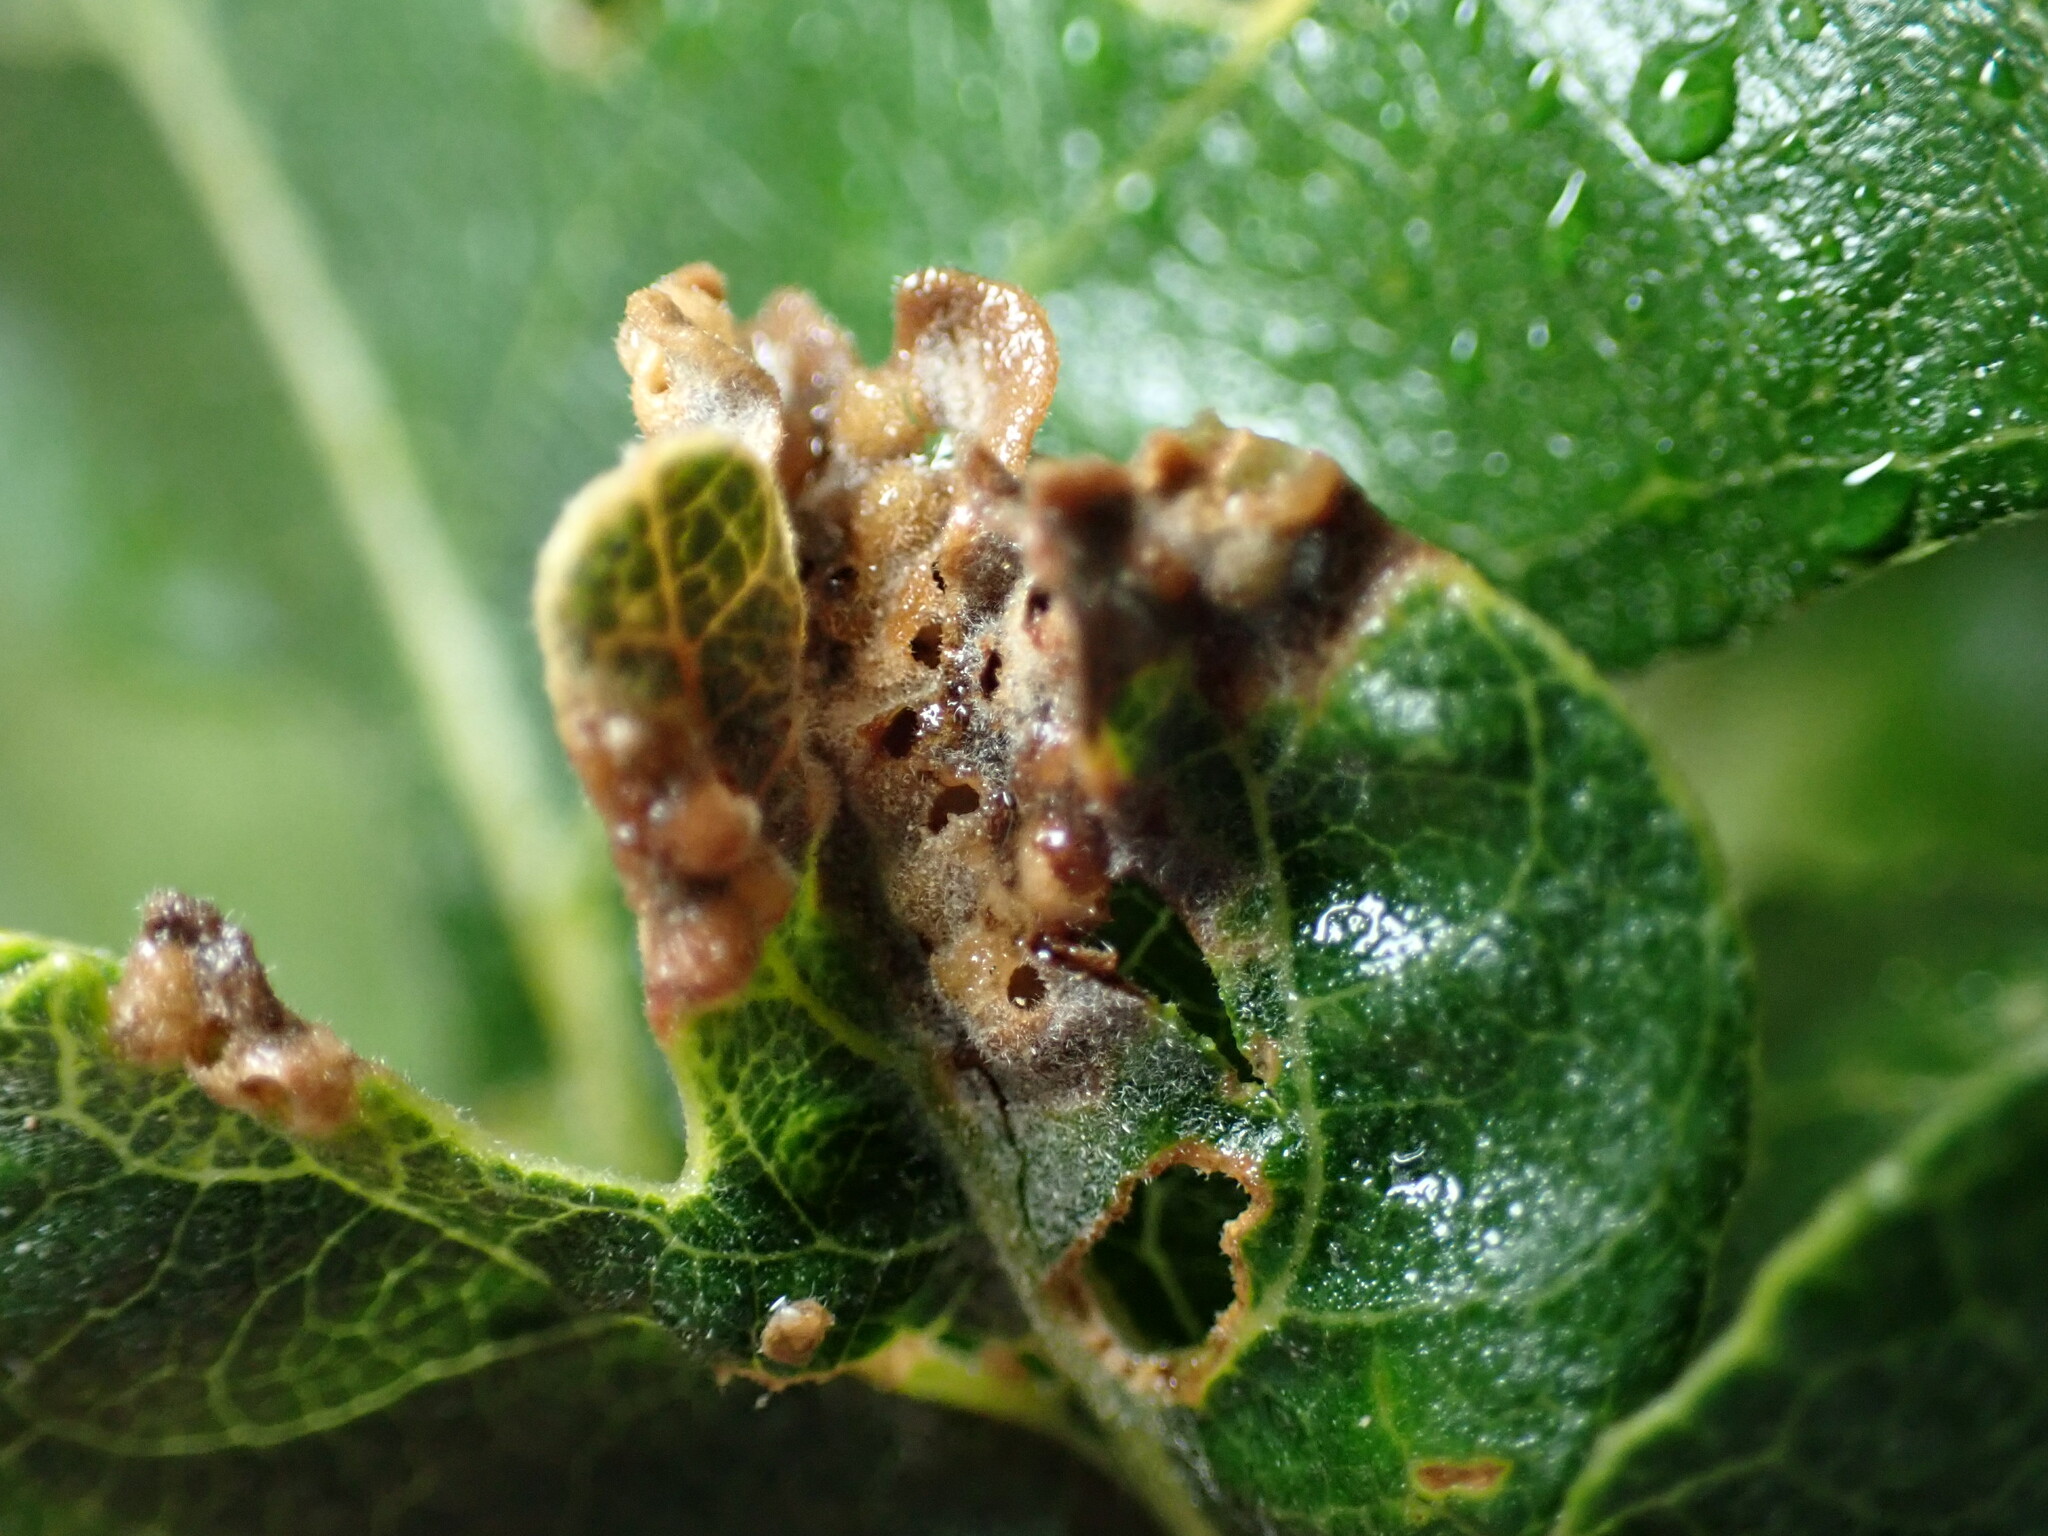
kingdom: Animalia
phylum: Arthropoda
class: Insecta
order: Hymenoptera
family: Cynipidae
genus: Neuroterus
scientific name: Neuroterus saltarius
